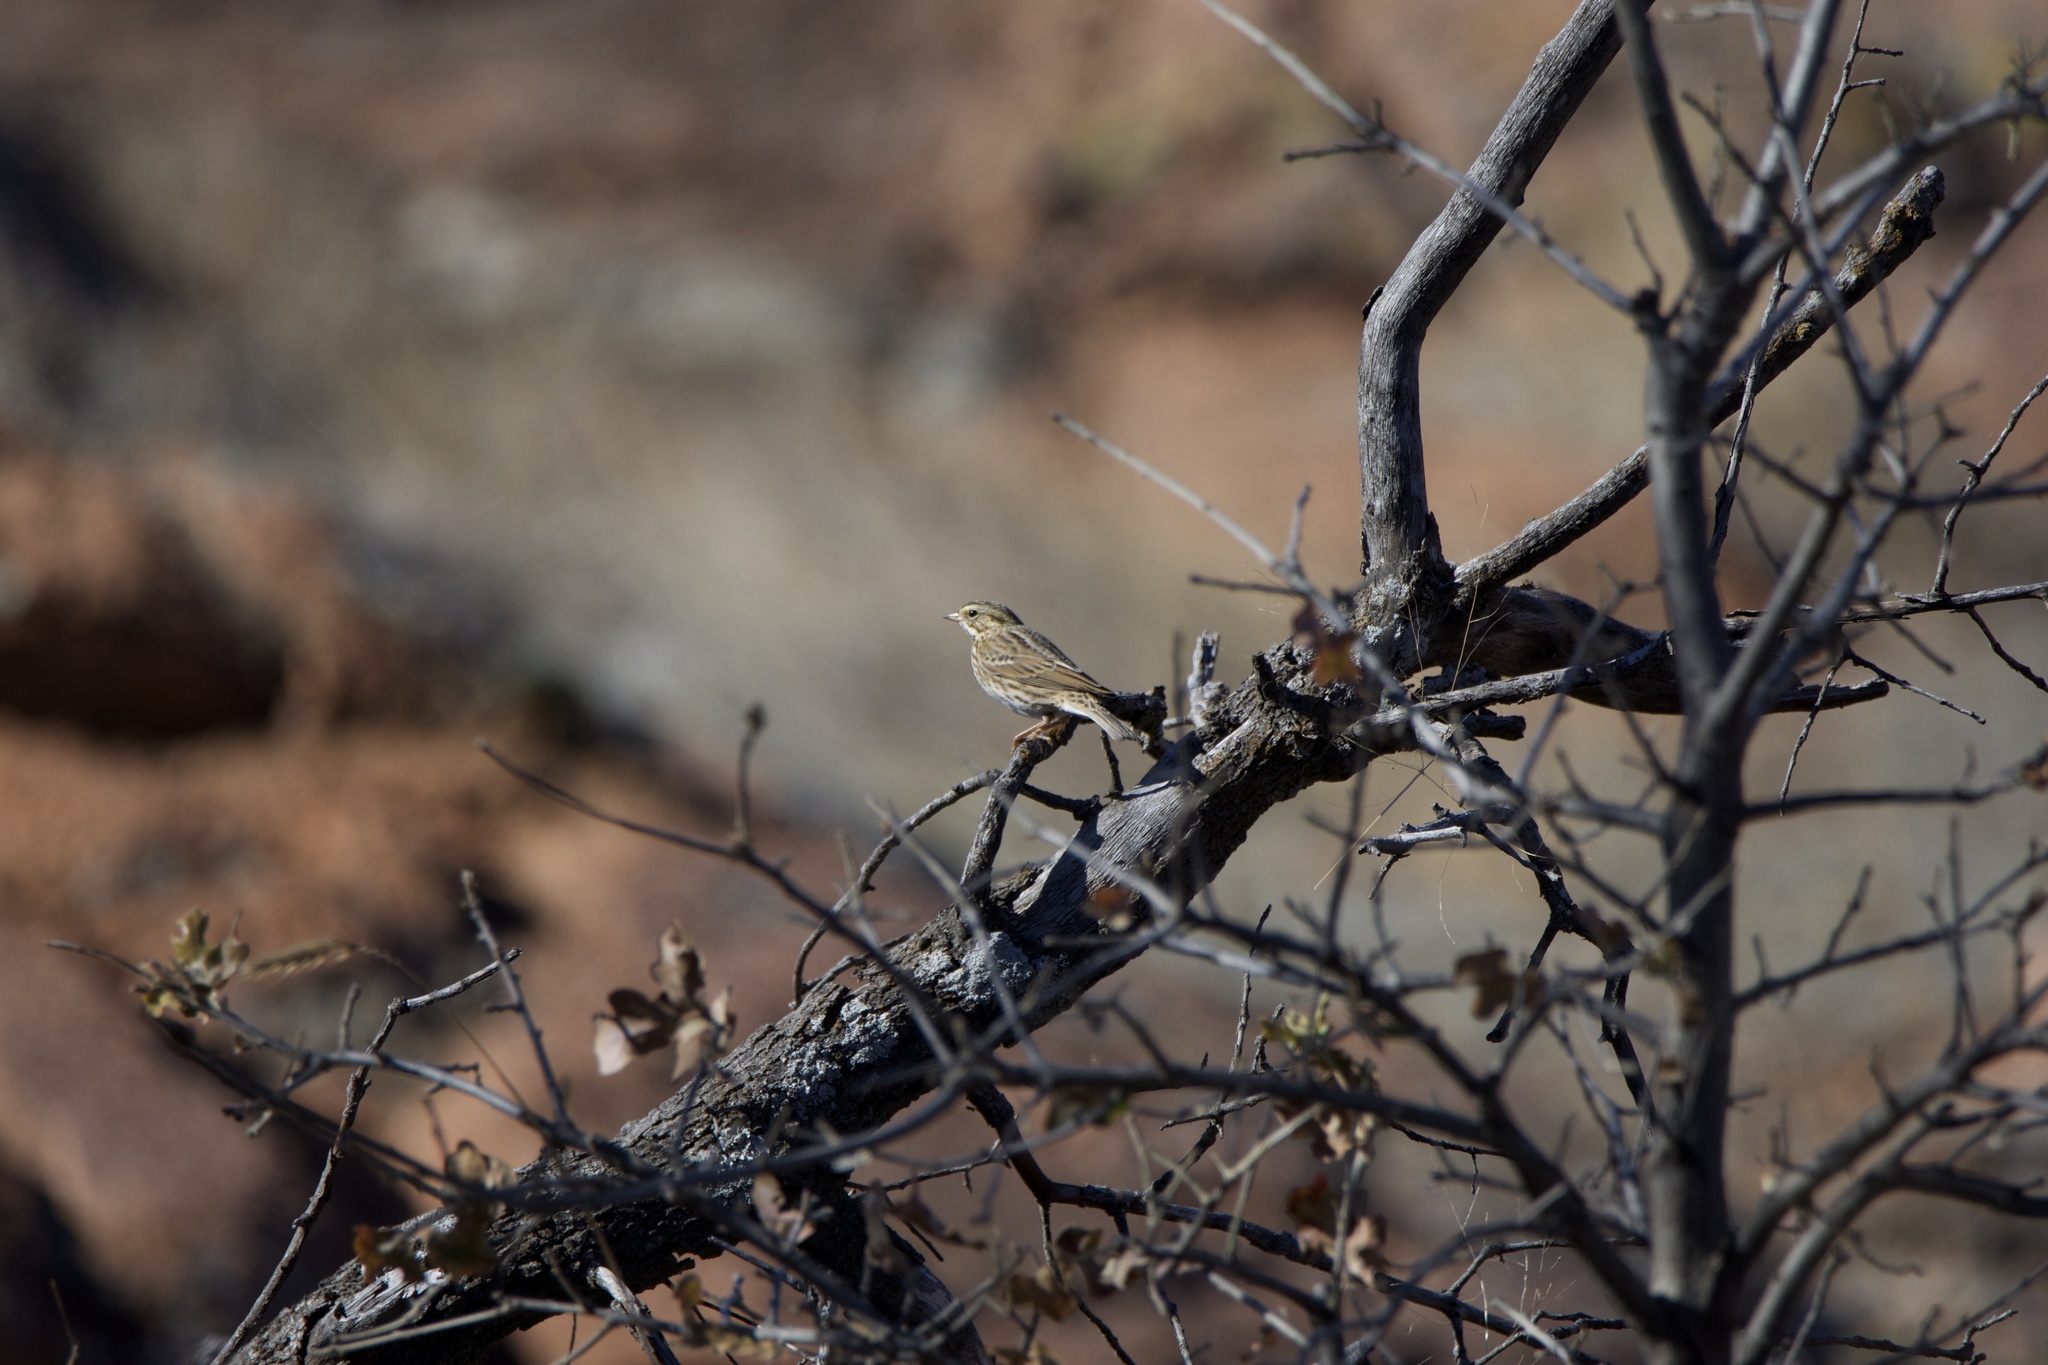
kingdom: Animalia
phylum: Chordata
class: Aves
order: Passeriformes
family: Passerellidae
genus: Passerculus
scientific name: Passerculus sandwichensis
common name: Savannah sparrow
